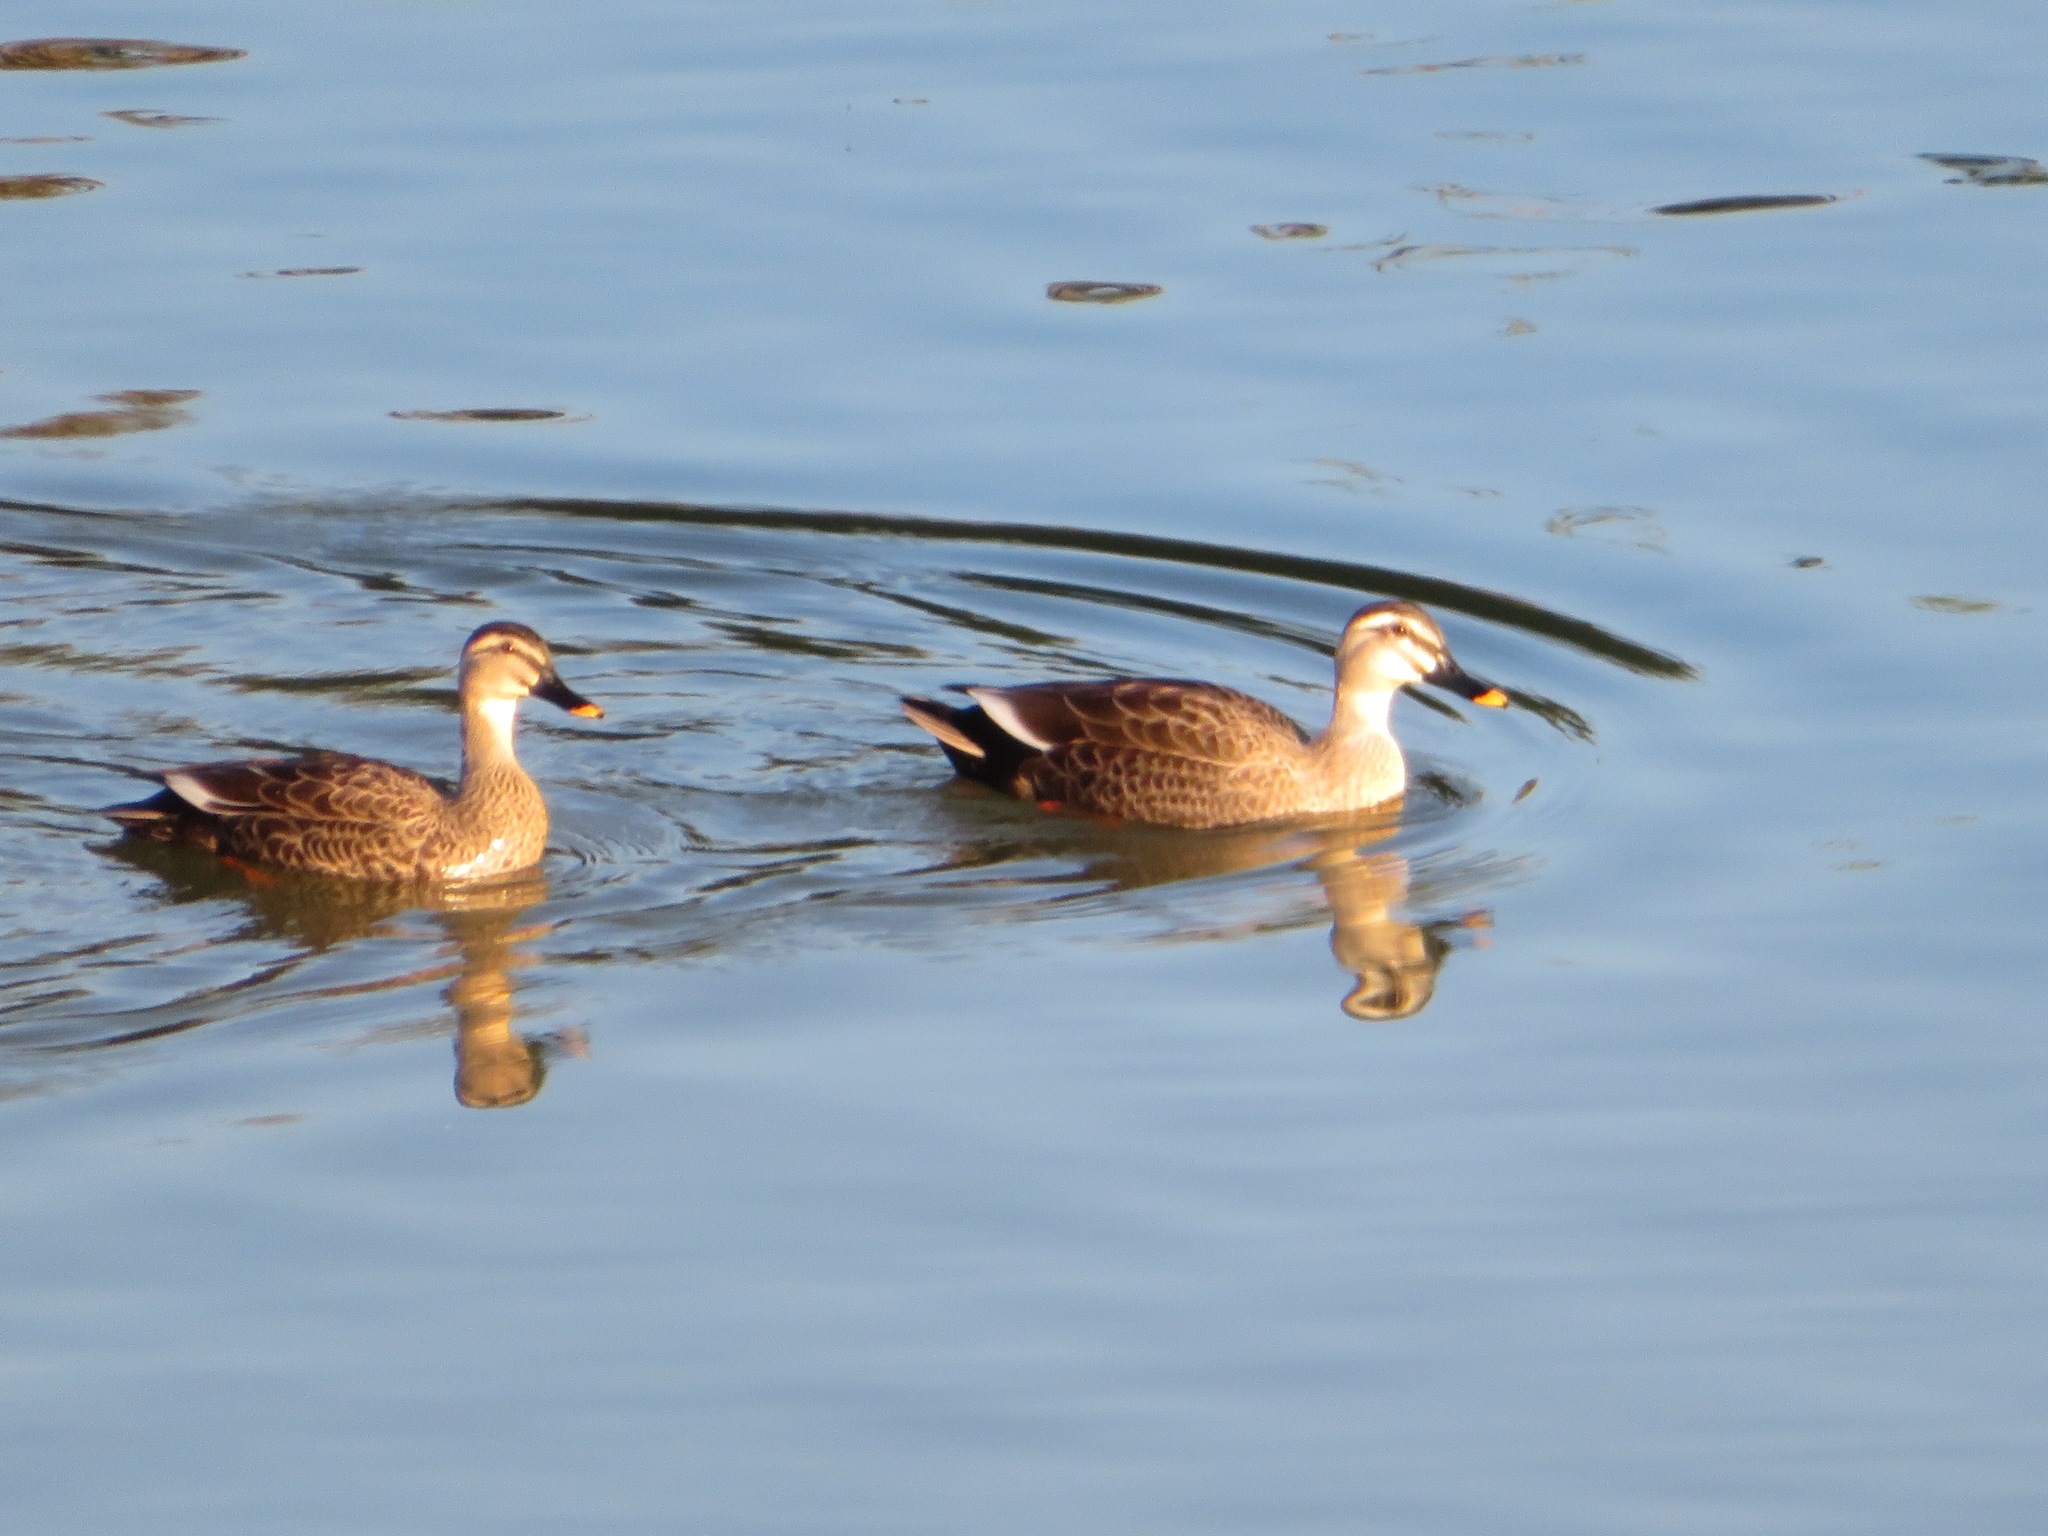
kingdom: Animalia
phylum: Chordata
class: Aves
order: Anseriformes
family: Anatidae
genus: Anas
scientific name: Anas zonorhyncha
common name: Eastern spot-billed duck
